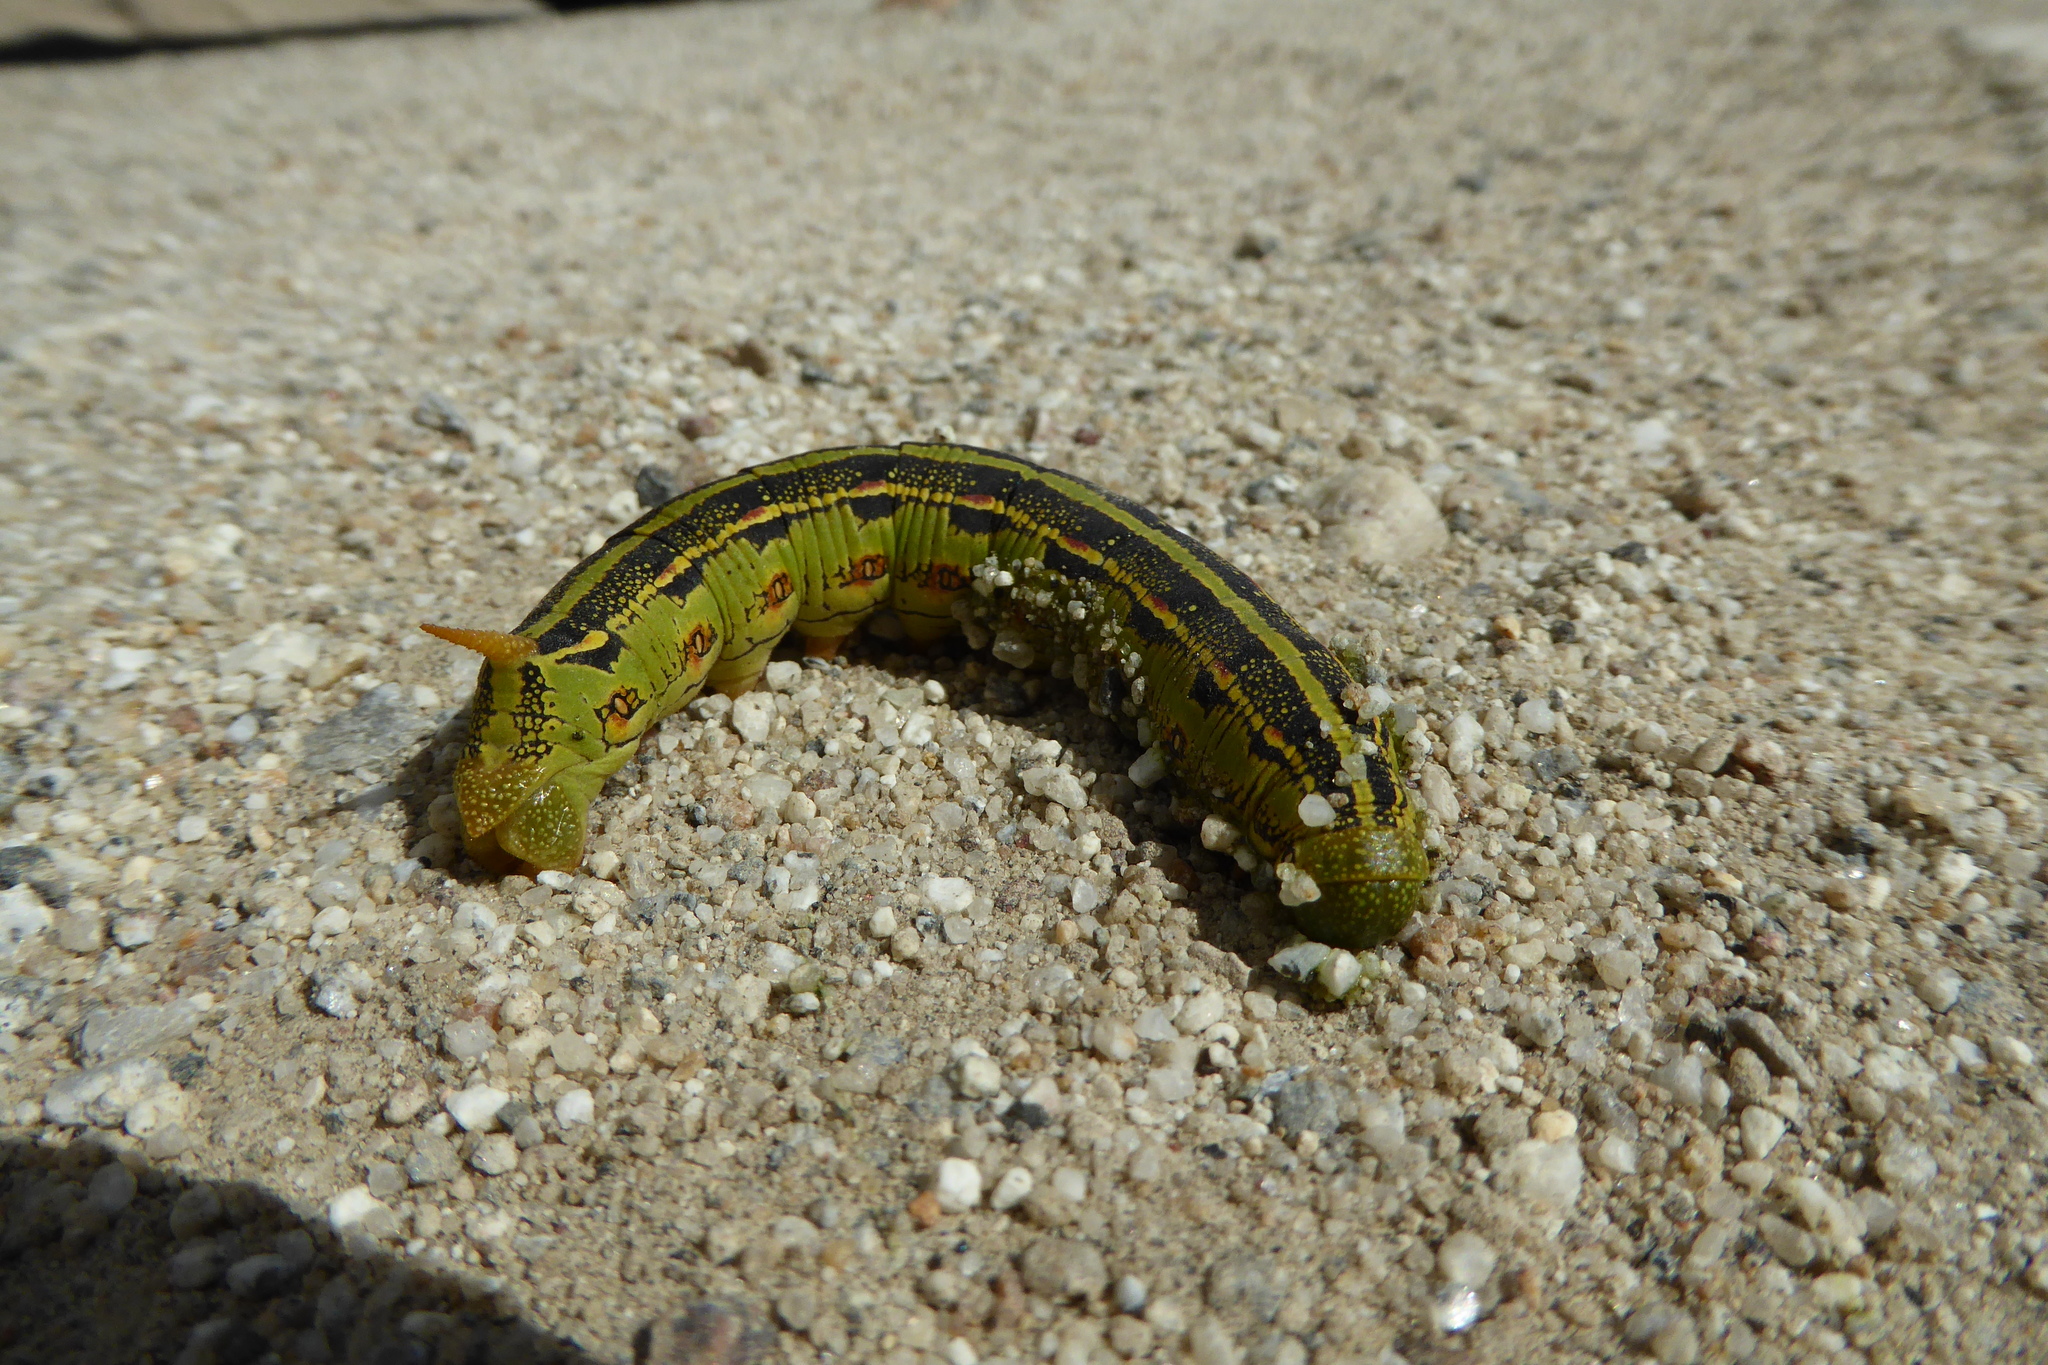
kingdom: Animalia
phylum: Arthropoda
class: Insecta
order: Lepidoptera
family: Sphingidae
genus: Hyles
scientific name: Hyles lineata
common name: White-lined sphinx
